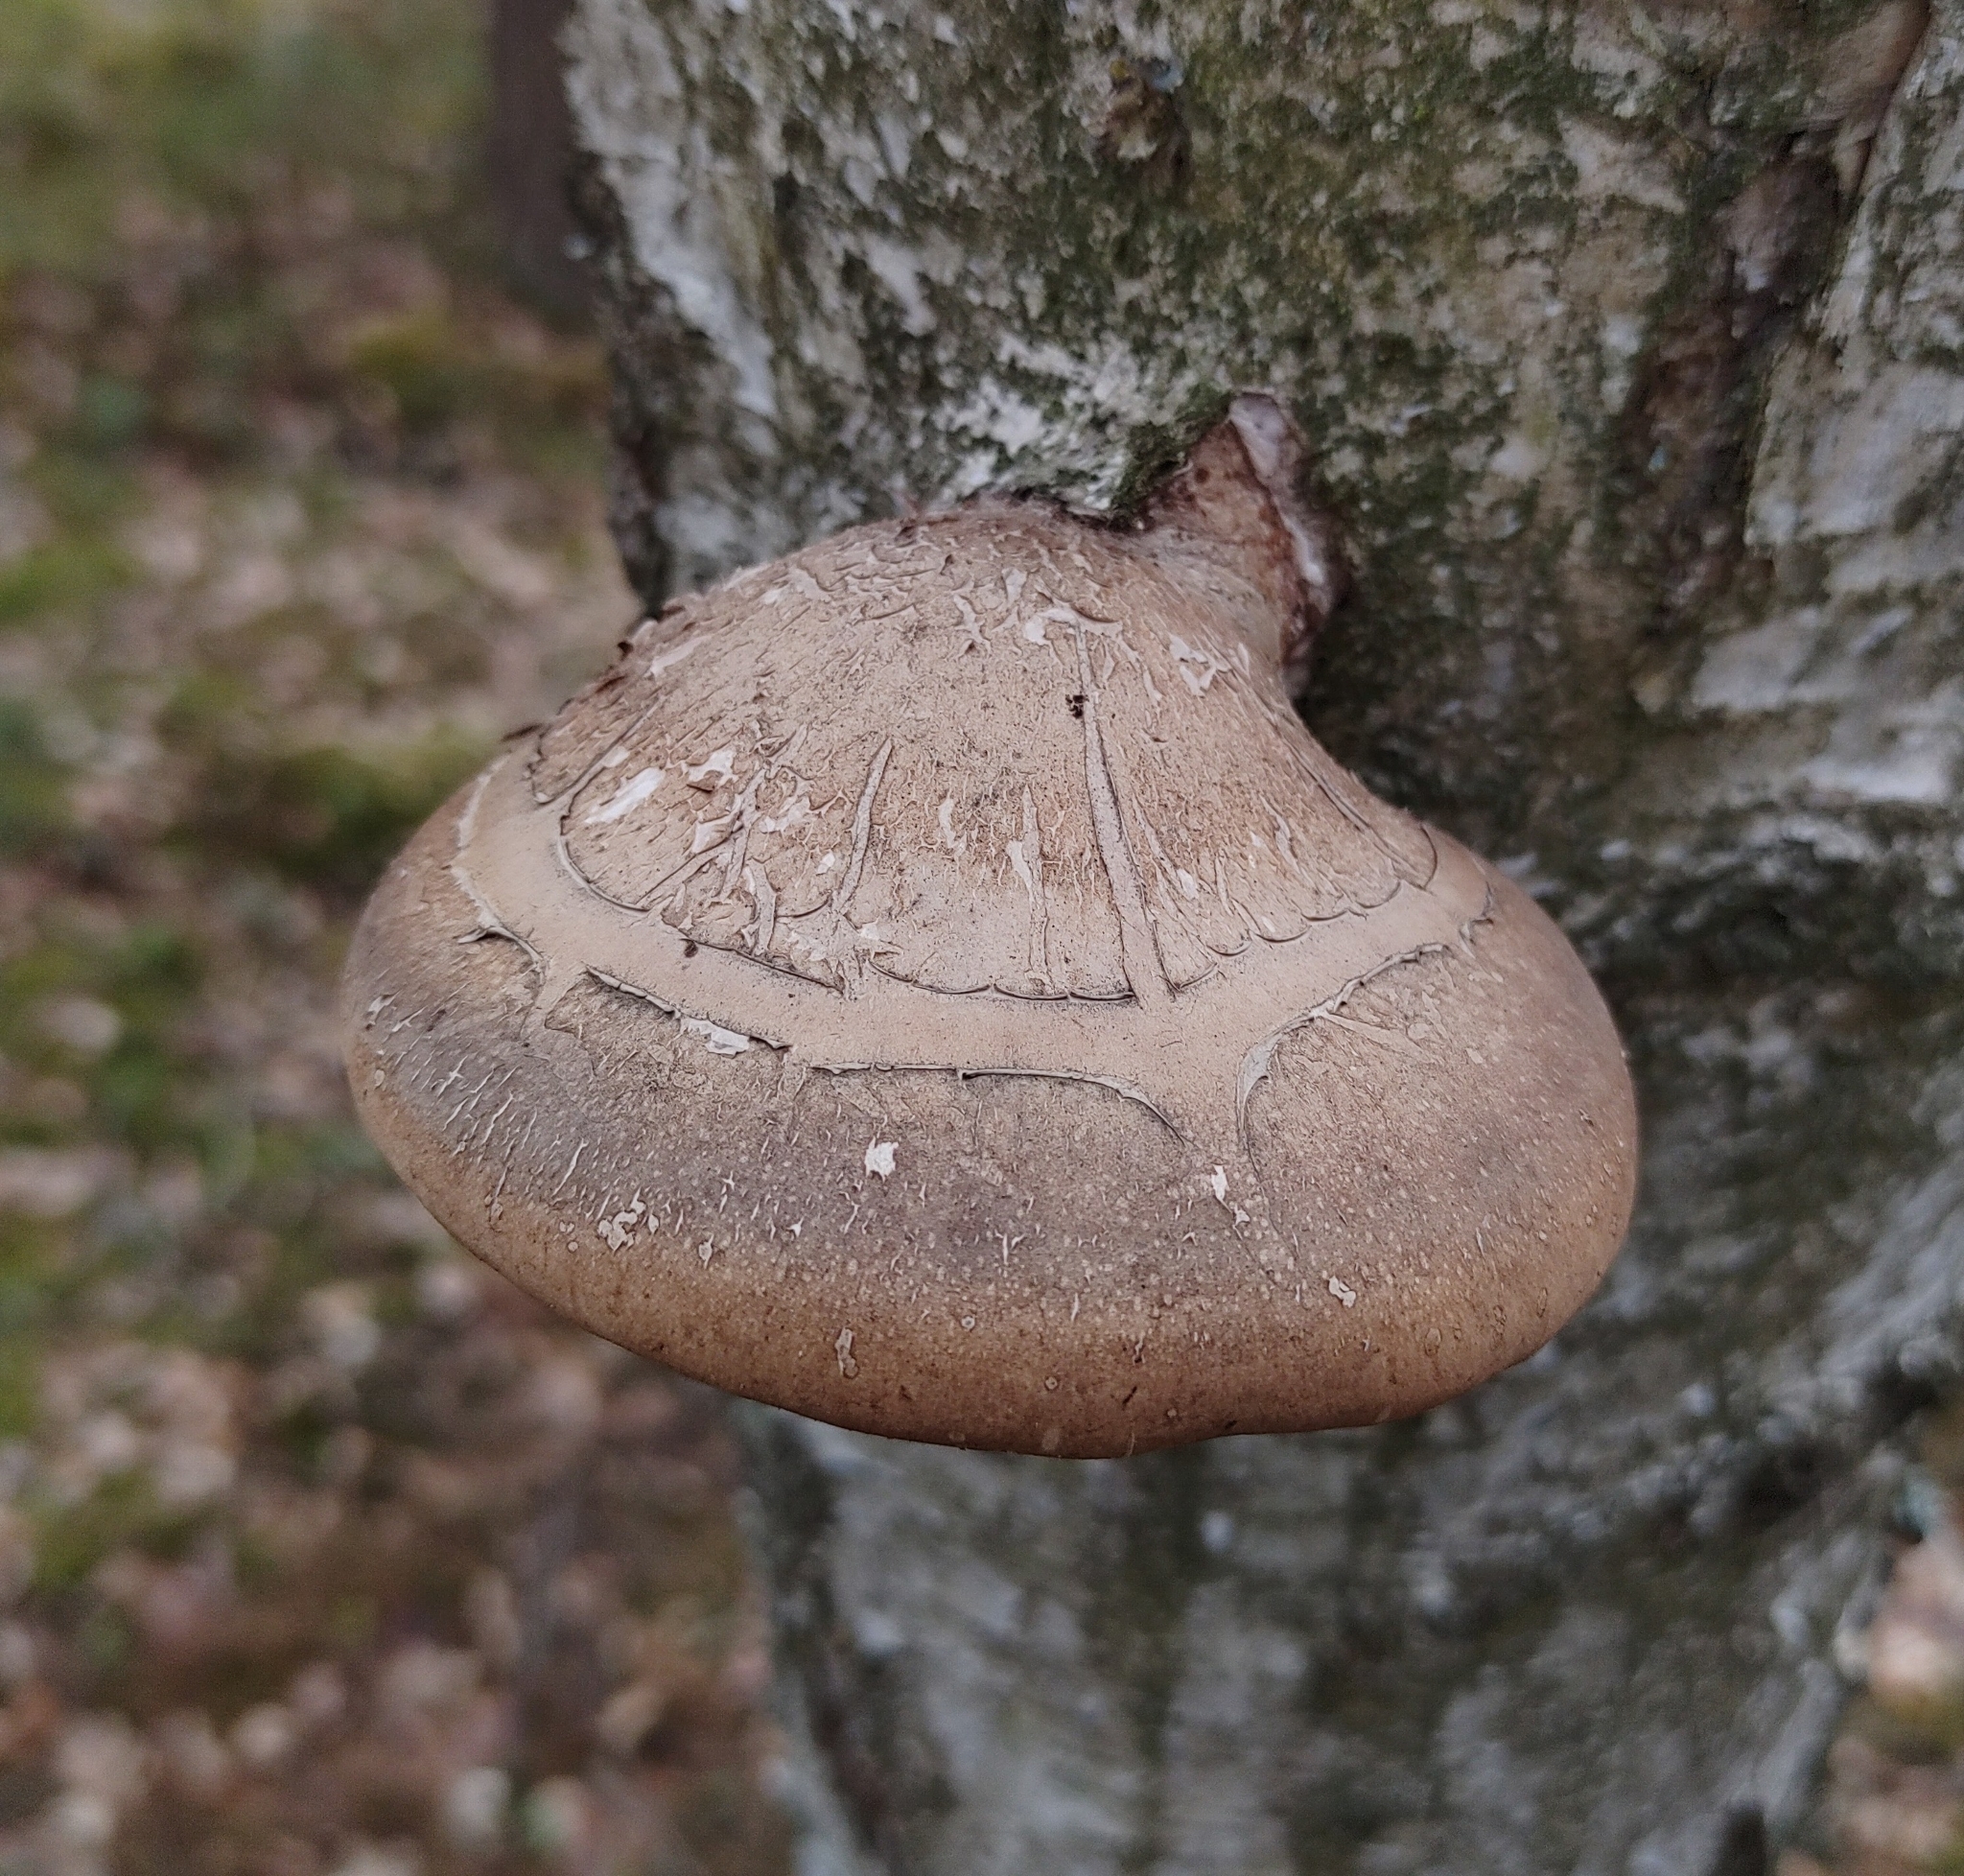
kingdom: Fungi
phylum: Basidiomycota
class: Agaricomycetes
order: Polyporales
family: Fomitopsidaceae
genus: Fomitopsis
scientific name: Fomitopsis betulina
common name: Birch polypore
